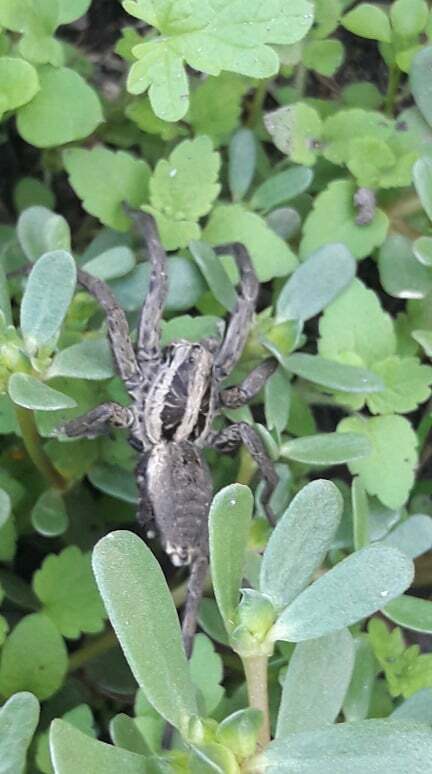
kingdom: Animalia
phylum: Arthropoda
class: Arachnida
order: Araneae
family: Lycosidae
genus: Hogna
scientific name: Hogna radiata
